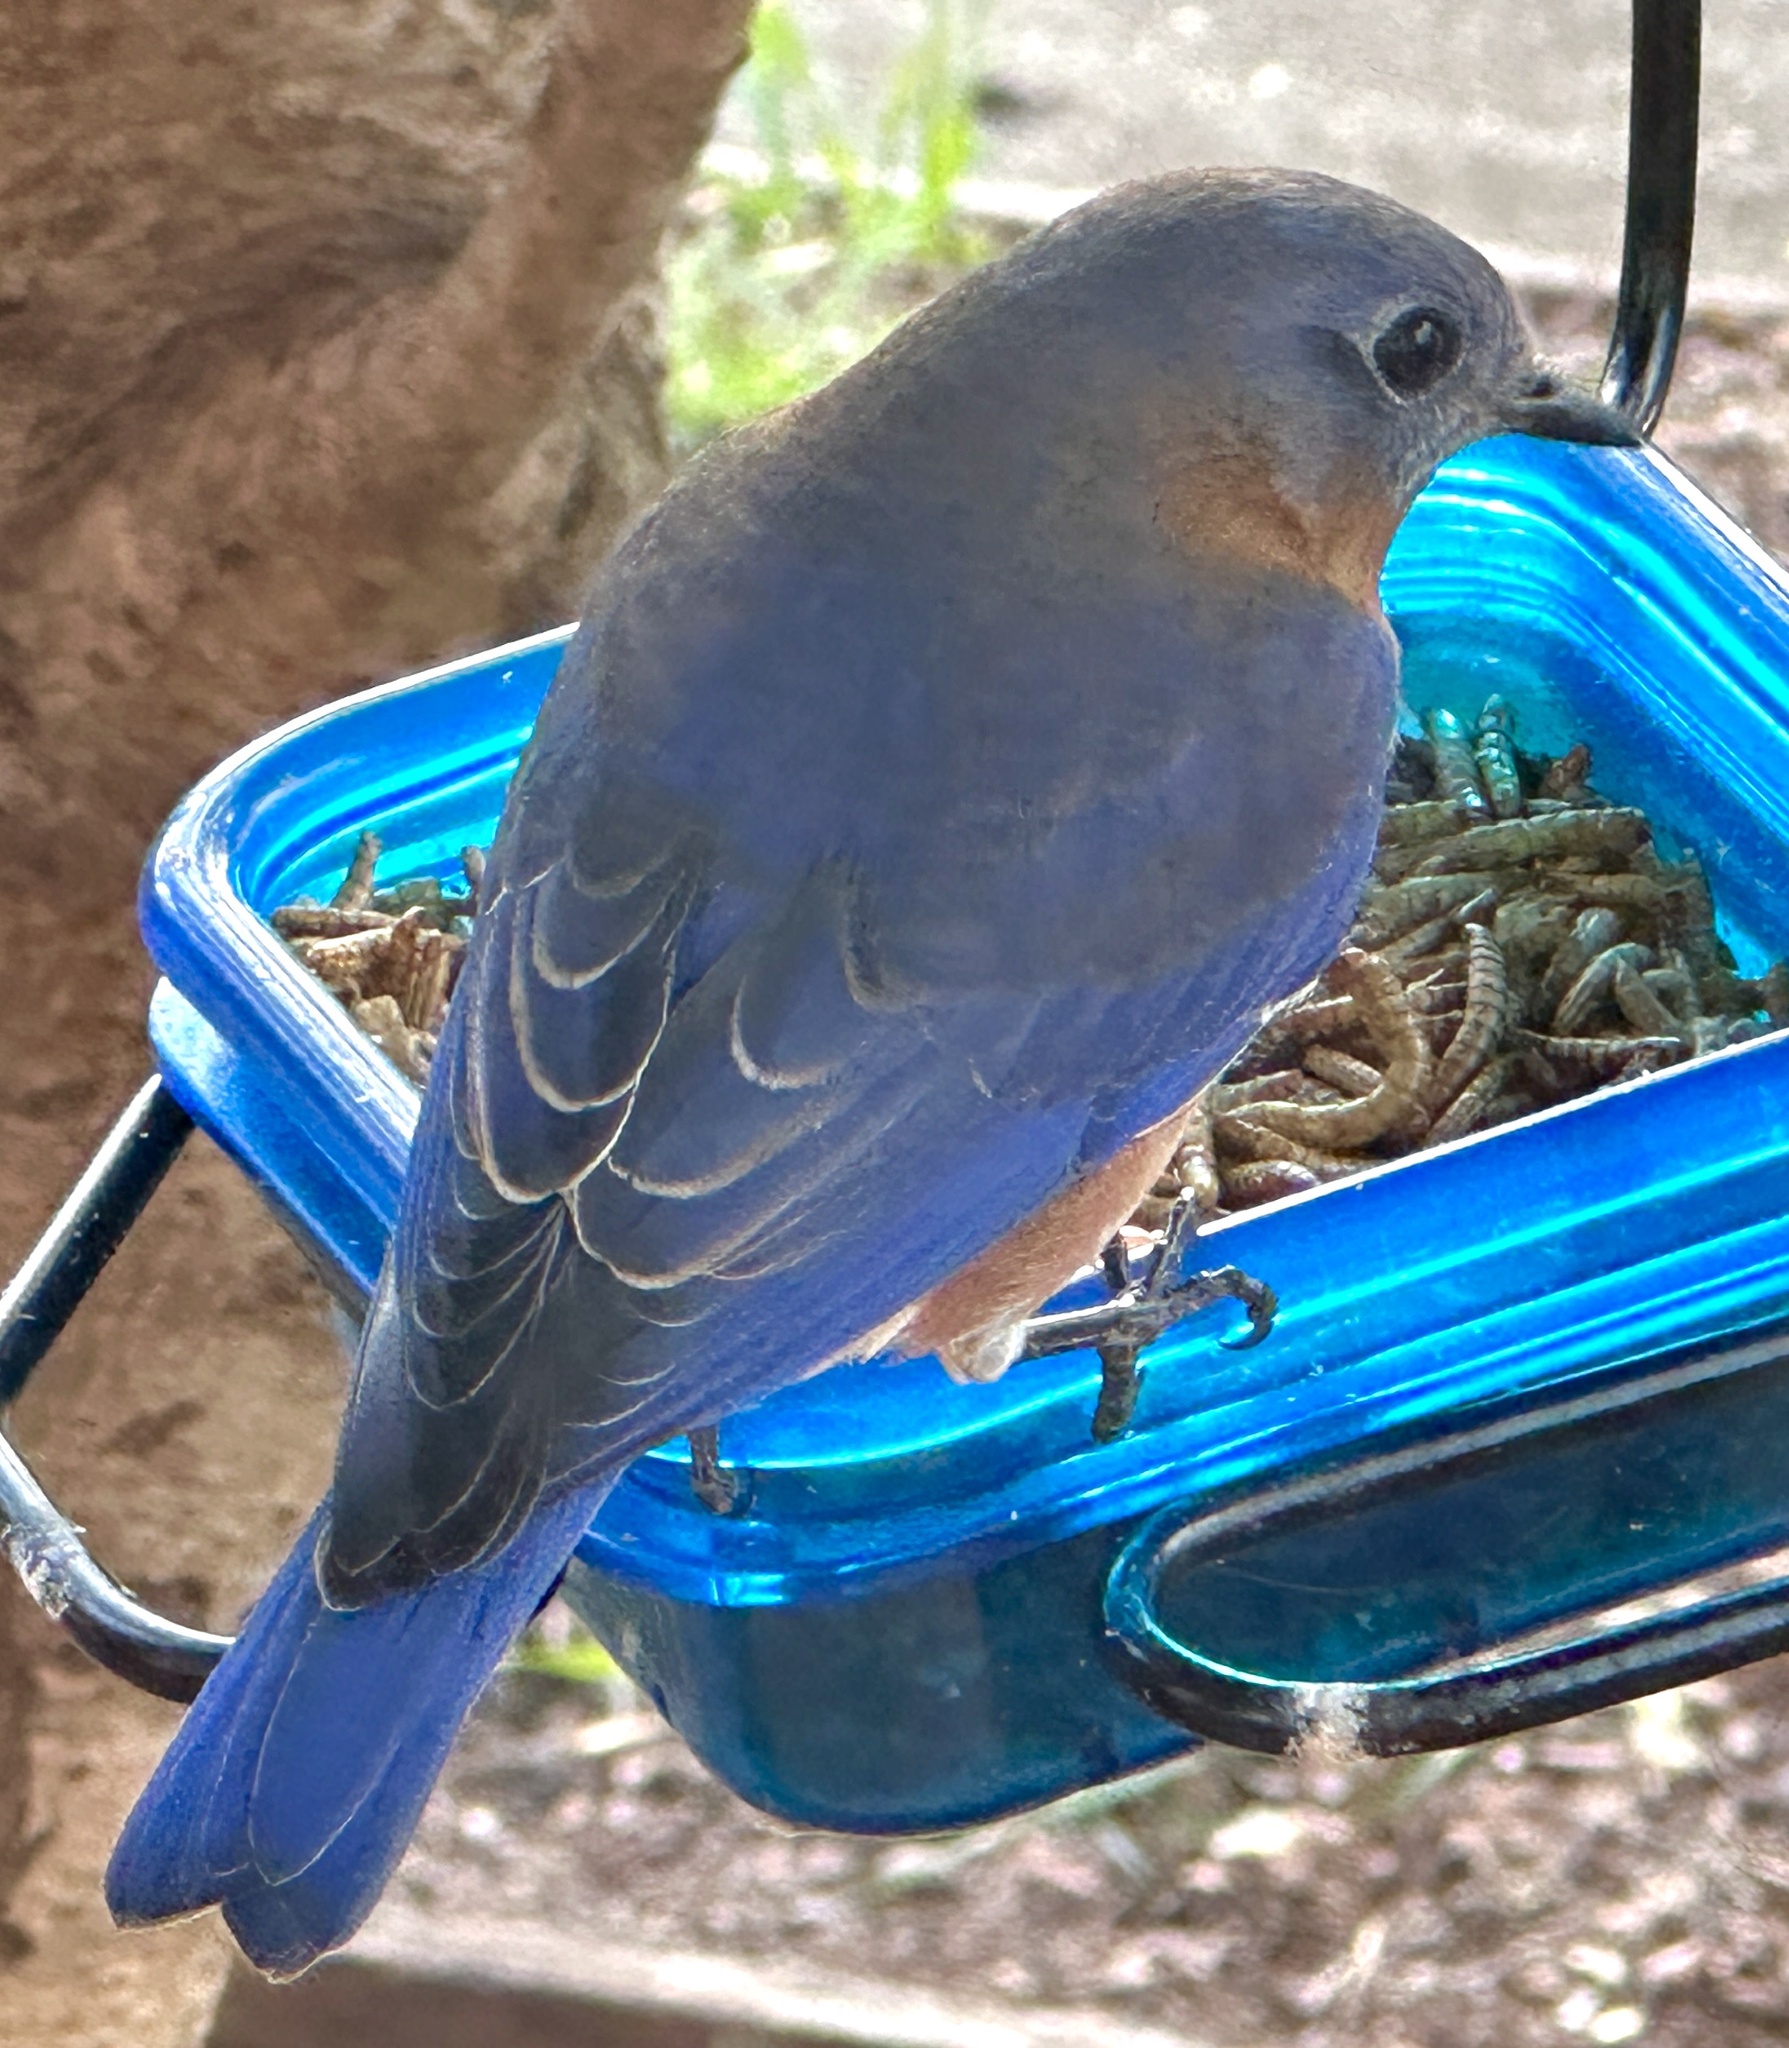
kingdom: Animalia
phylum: Chordata
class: Aves
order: Passeriformes
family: Turdidae
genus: Sialia
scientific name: Sialia sialis
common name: Eastern bluebird
